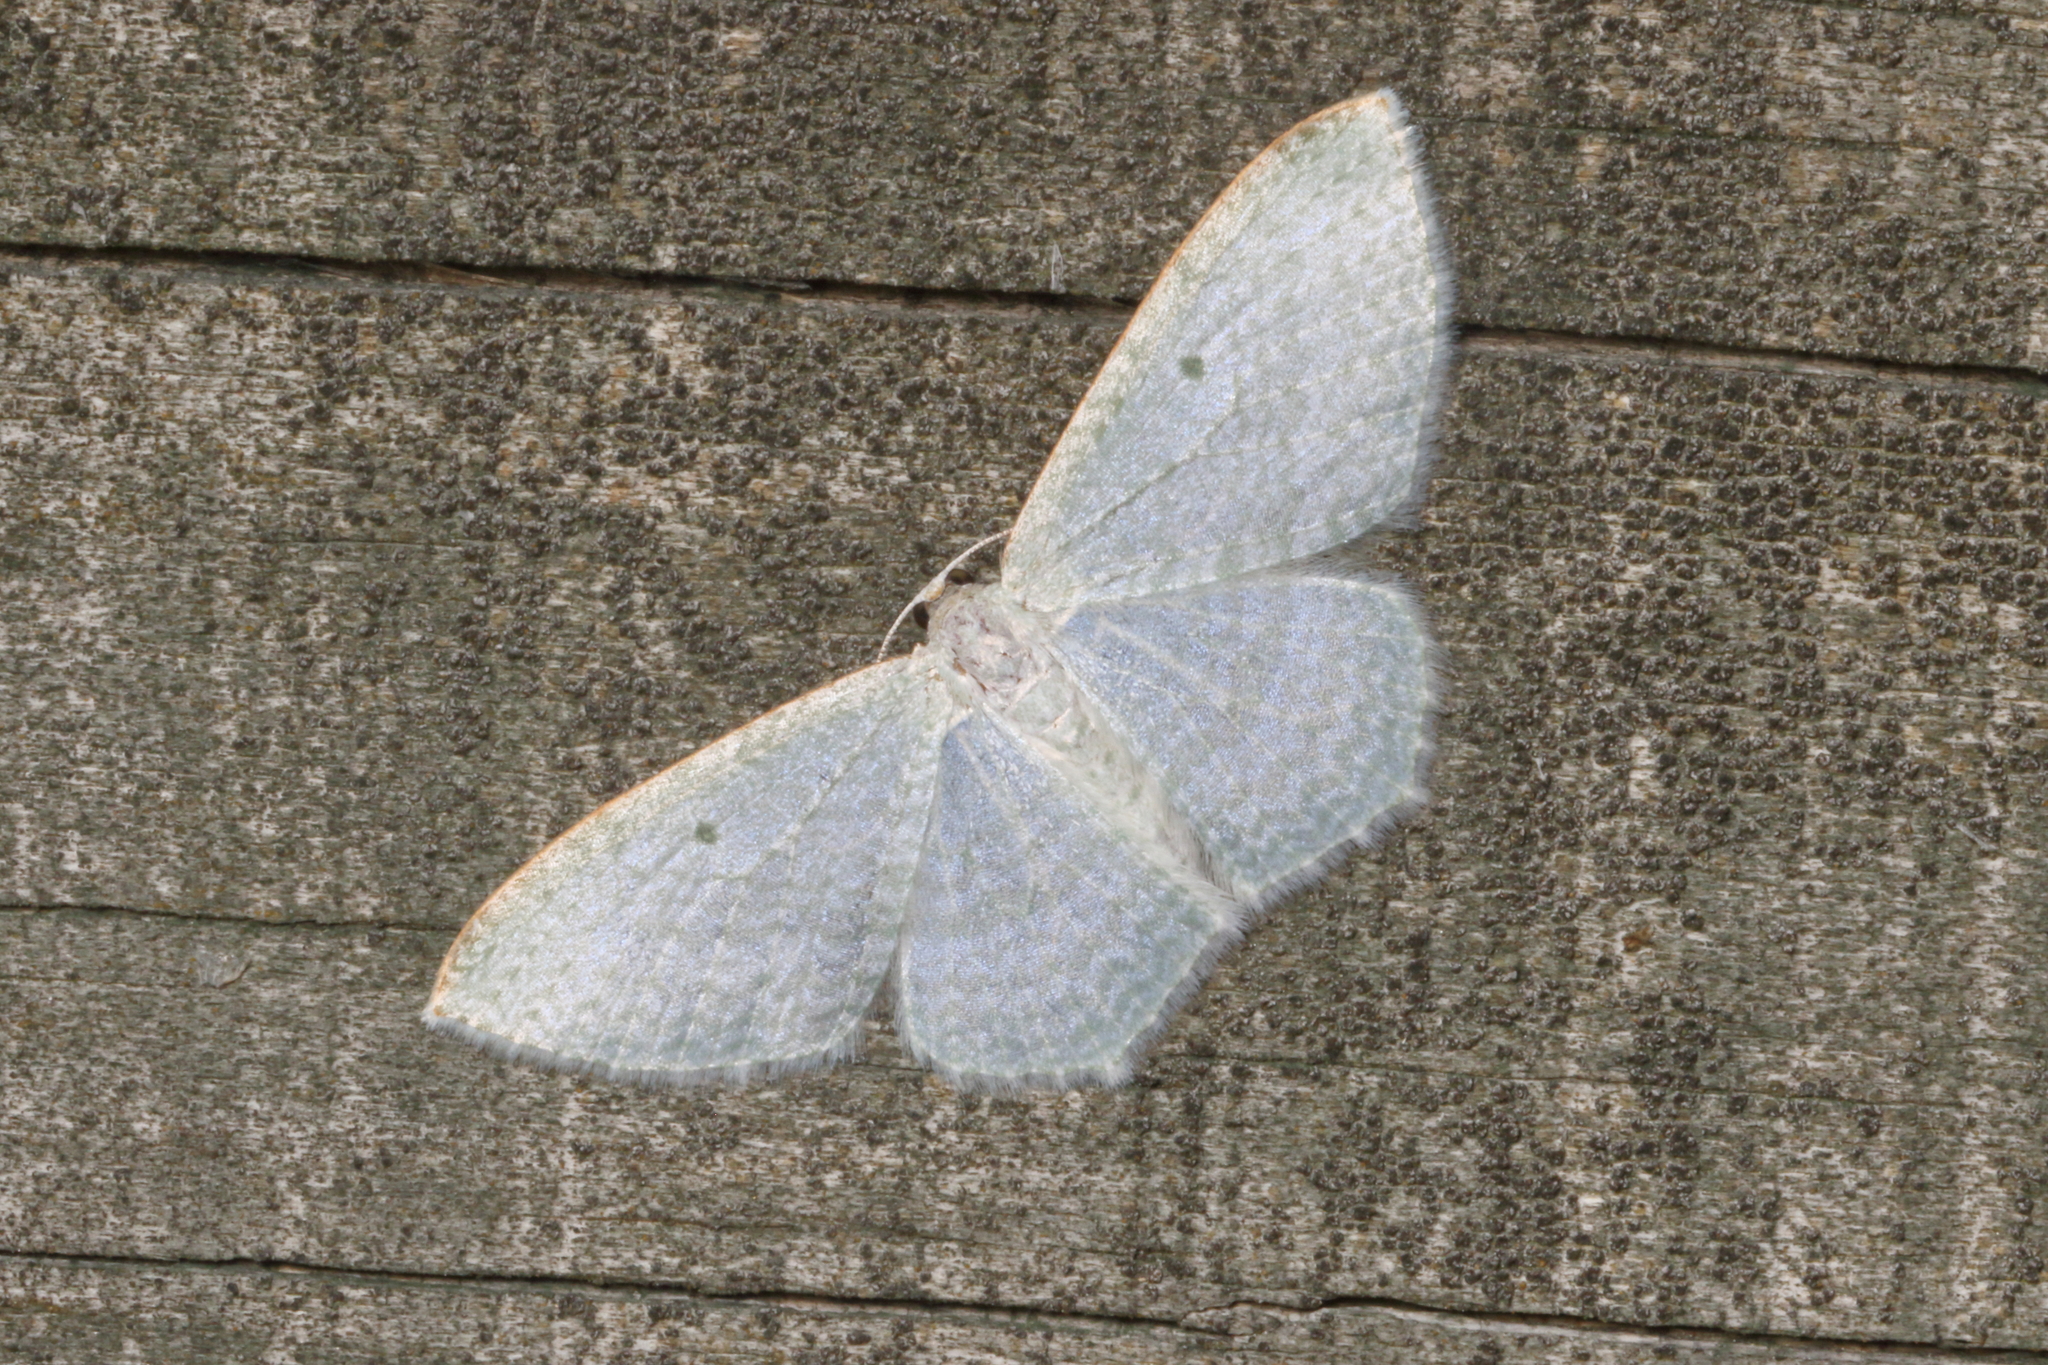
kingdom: Animalia
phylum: Arthropoda
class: Insecta
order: Lepidoptera
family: Geometridae
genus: Poecilasthena
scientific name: Poecilasthena pulchraria
